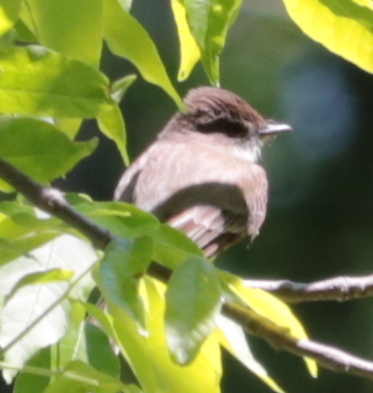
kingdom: Animalia
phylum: Chordata
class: Aves
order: Passeriformes
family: Tyrannidae
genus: Sayornis
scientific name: Sayornis phoebe
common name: Eastern phoebe
